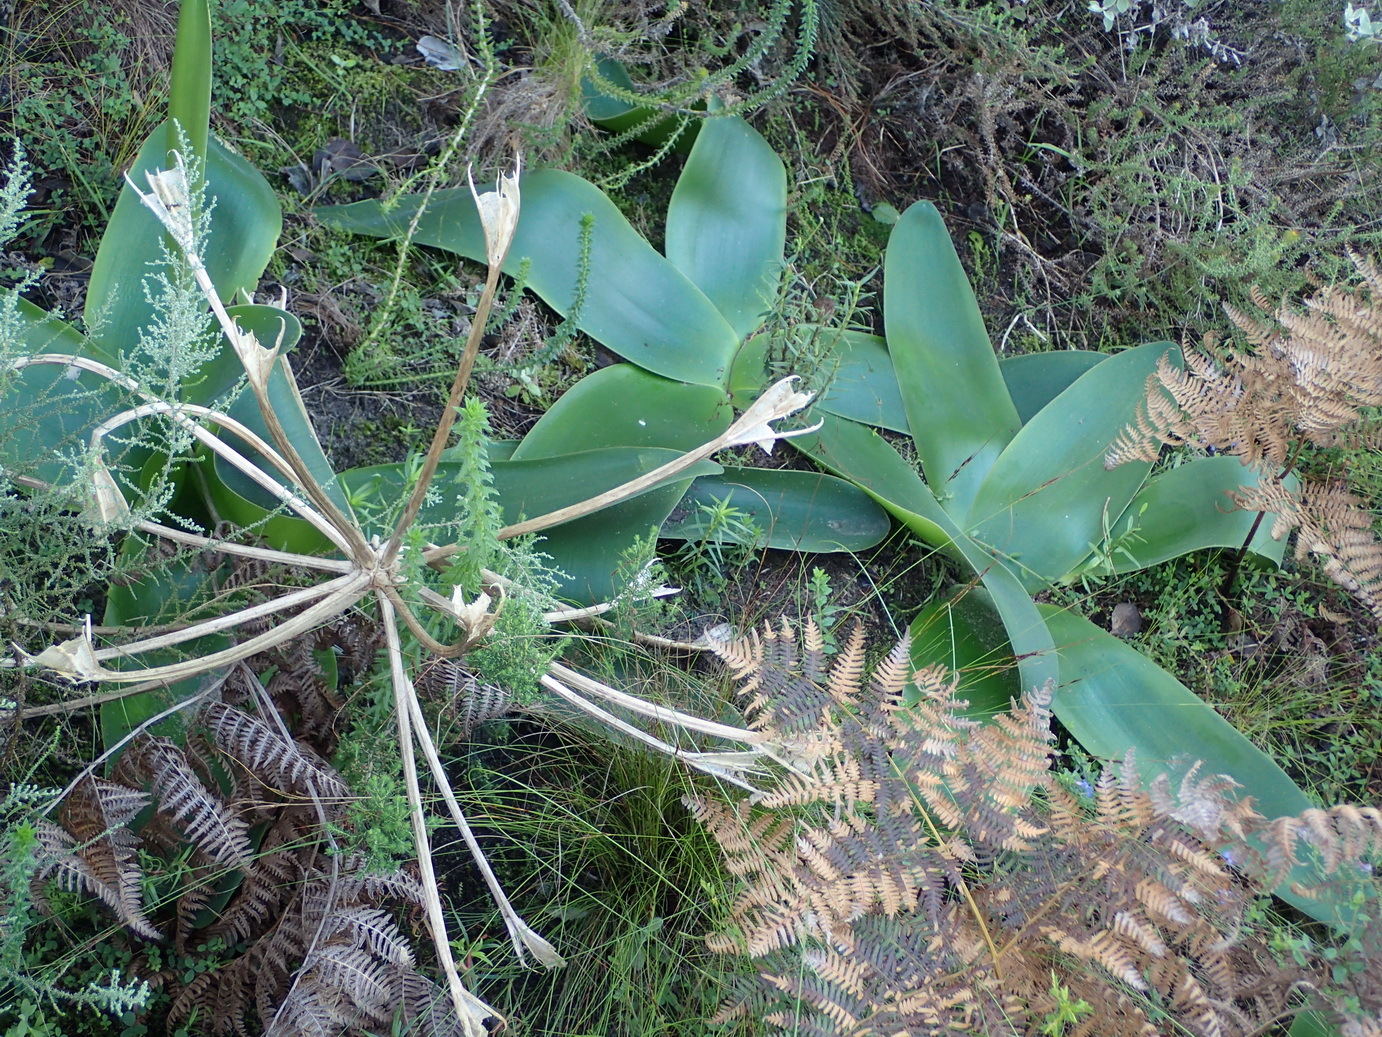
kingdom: Plantae
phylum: Tracheophyta
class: Liliopsida
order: Asparagales
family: Amaryllidaceae
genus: Brunsvigia
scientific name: Brunsvigia orientalis
